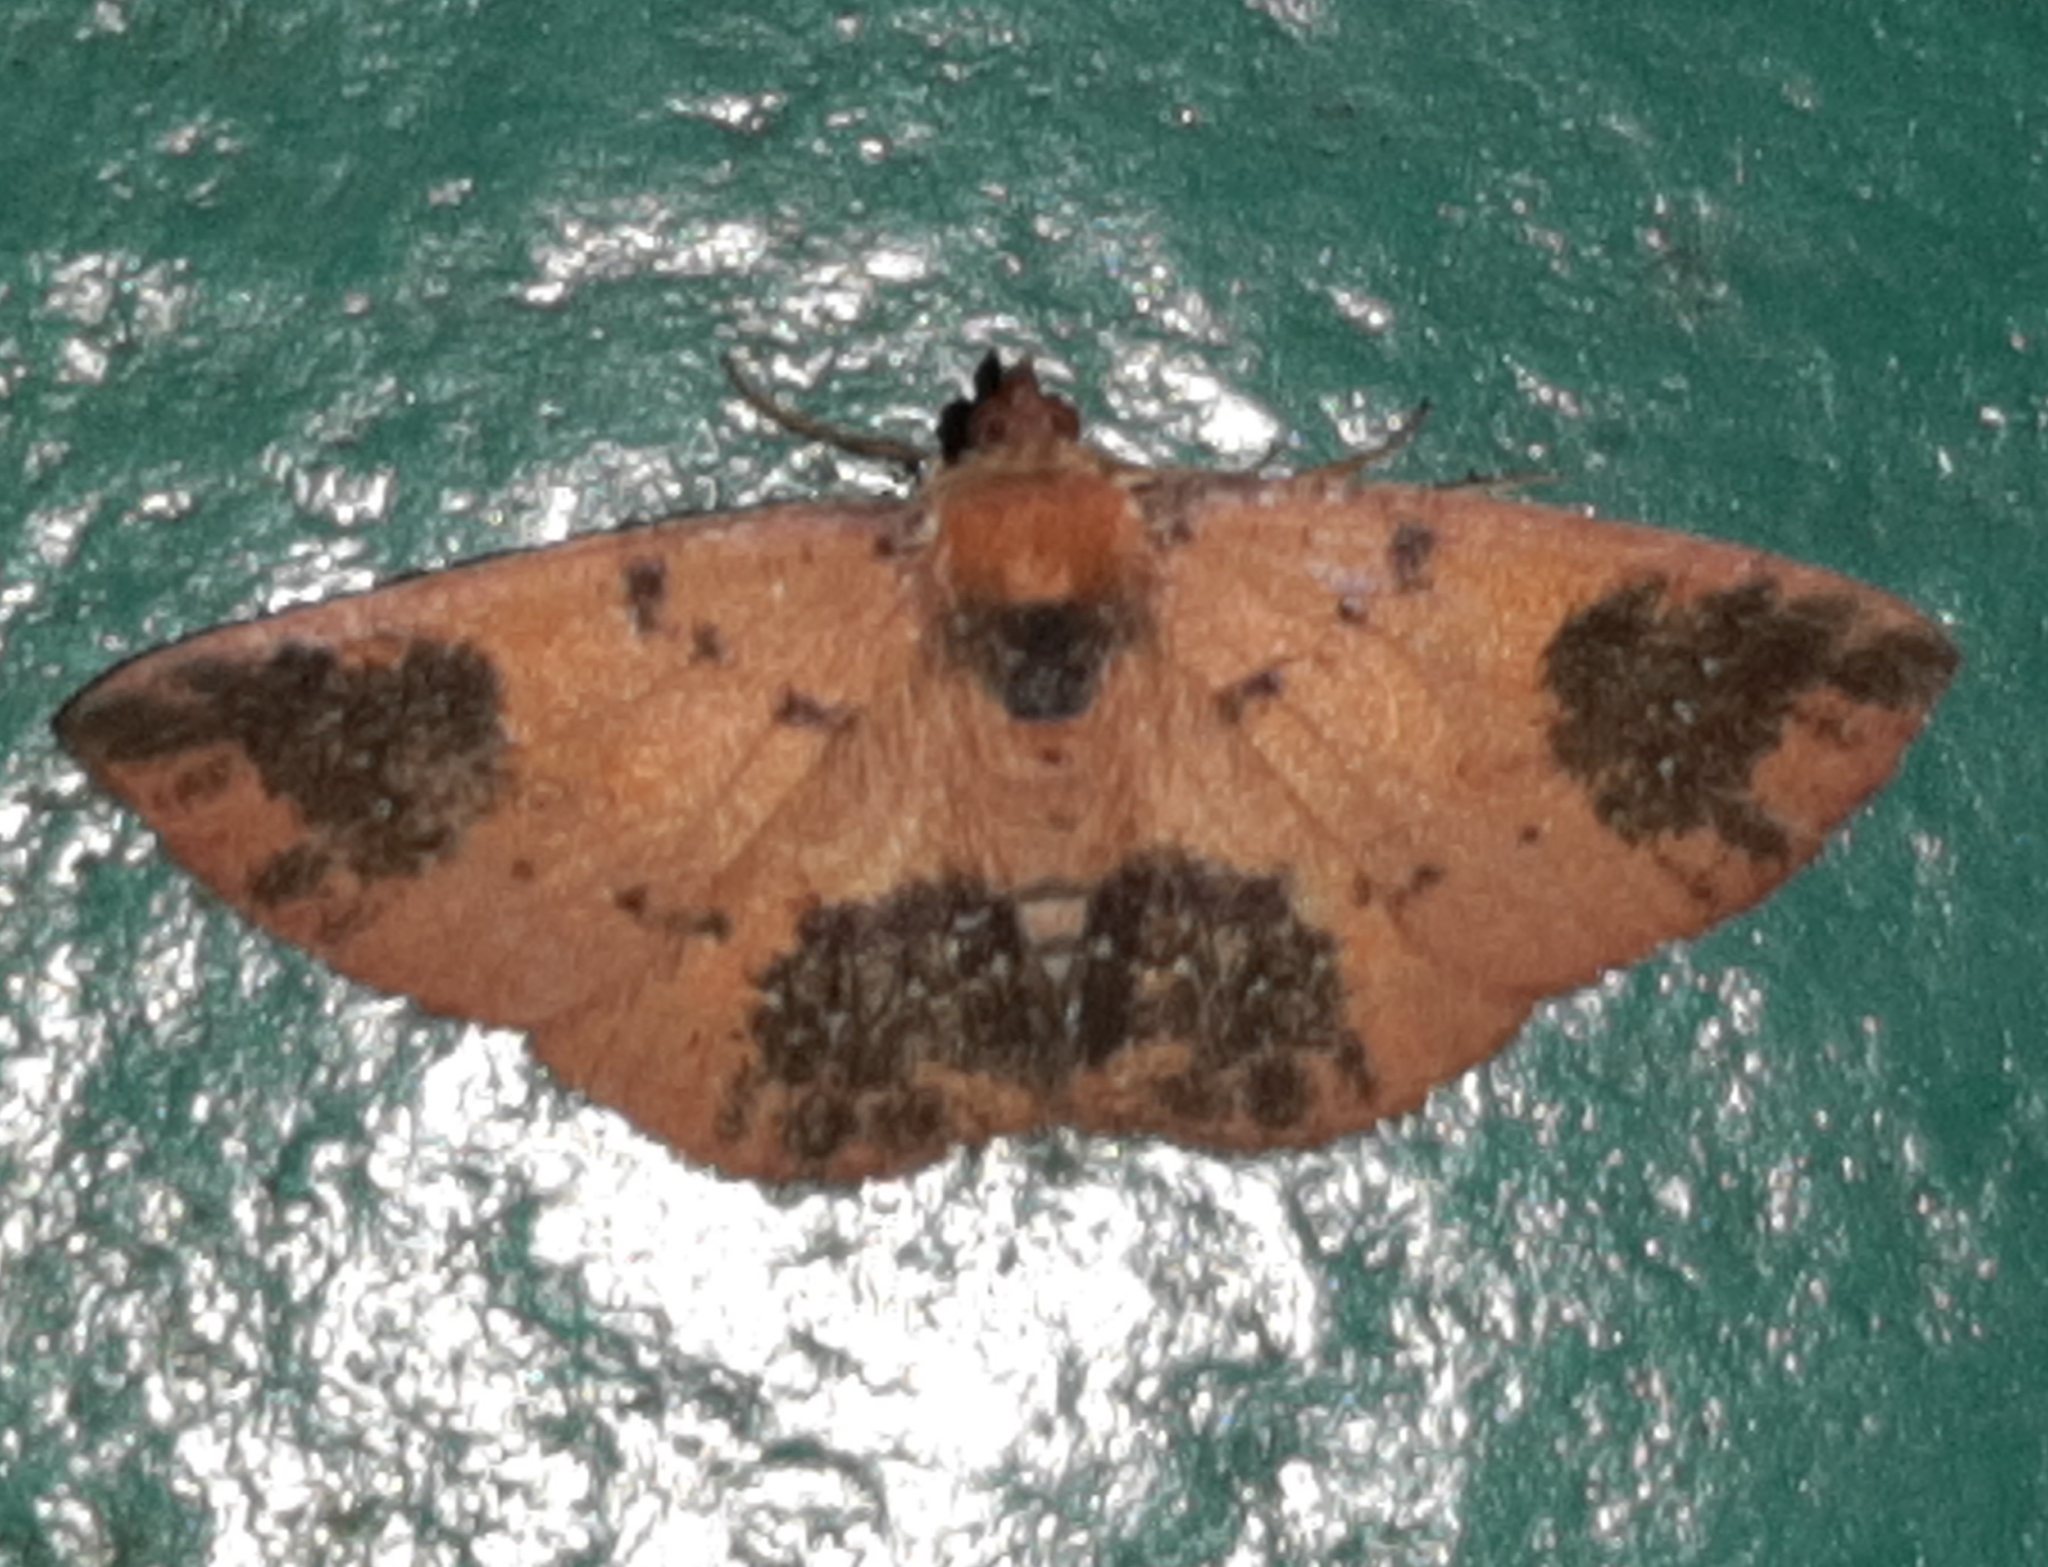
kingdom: Animalia
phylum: Arthropoda
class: Insecta
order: Lepidoptera
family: Geometridae
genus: Oenoptila
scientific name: Oenoptila nigrivestita
